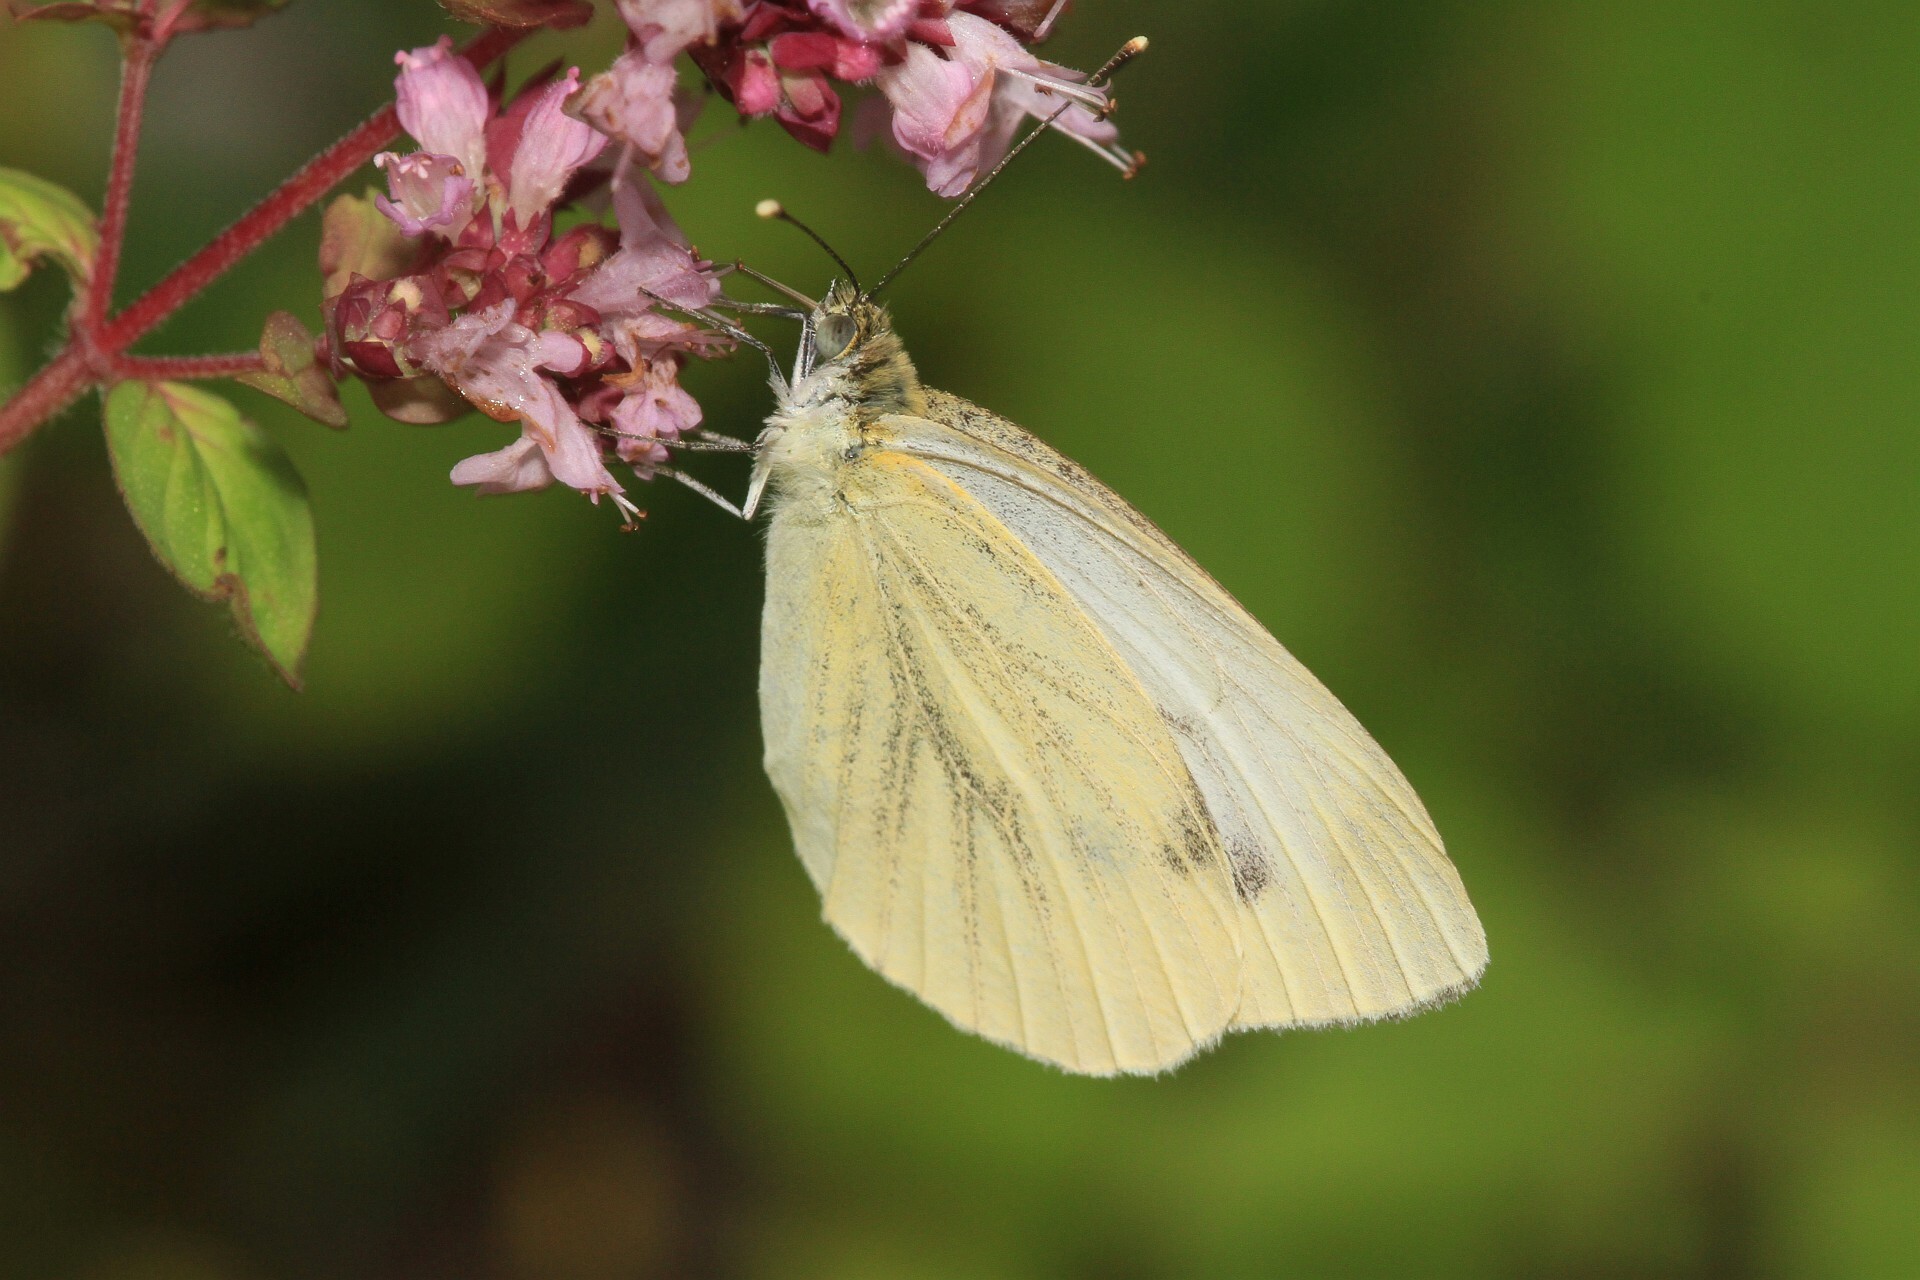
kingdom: Animalia
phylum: Arthropoda
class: Insecta
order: Lepidoptera
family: Pieridae
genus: Pieris
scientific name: Pieris napi
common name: Green-veined white
